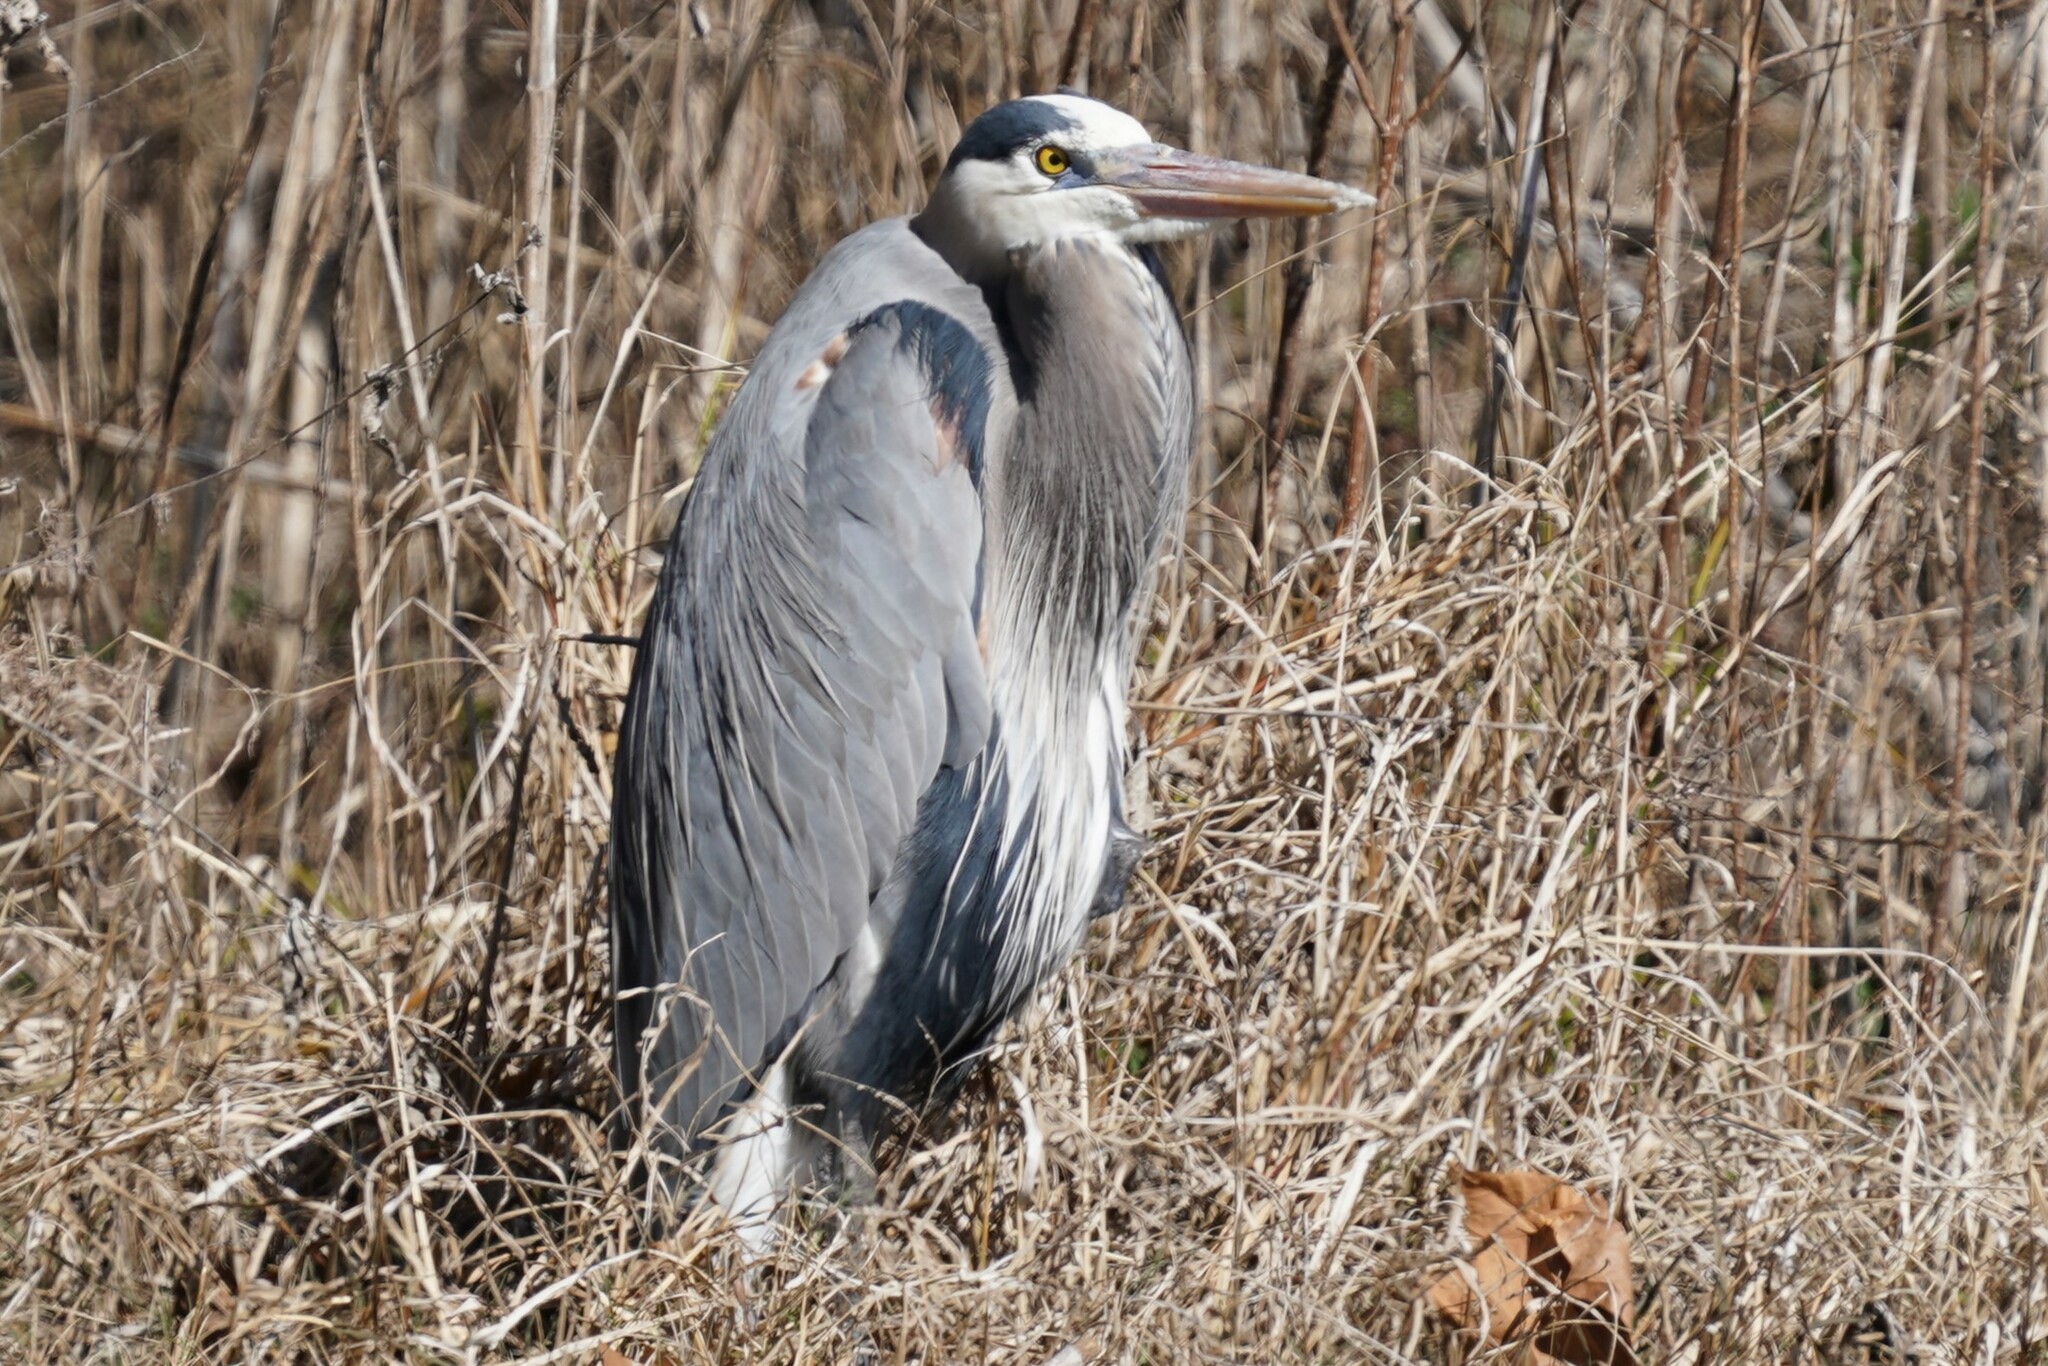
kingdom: Animalia
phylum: Chordata
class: Aves
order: Pelecaniformes
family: Ardeidae
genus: Ardea
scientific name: Ardea herodias
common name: Great blue heron
